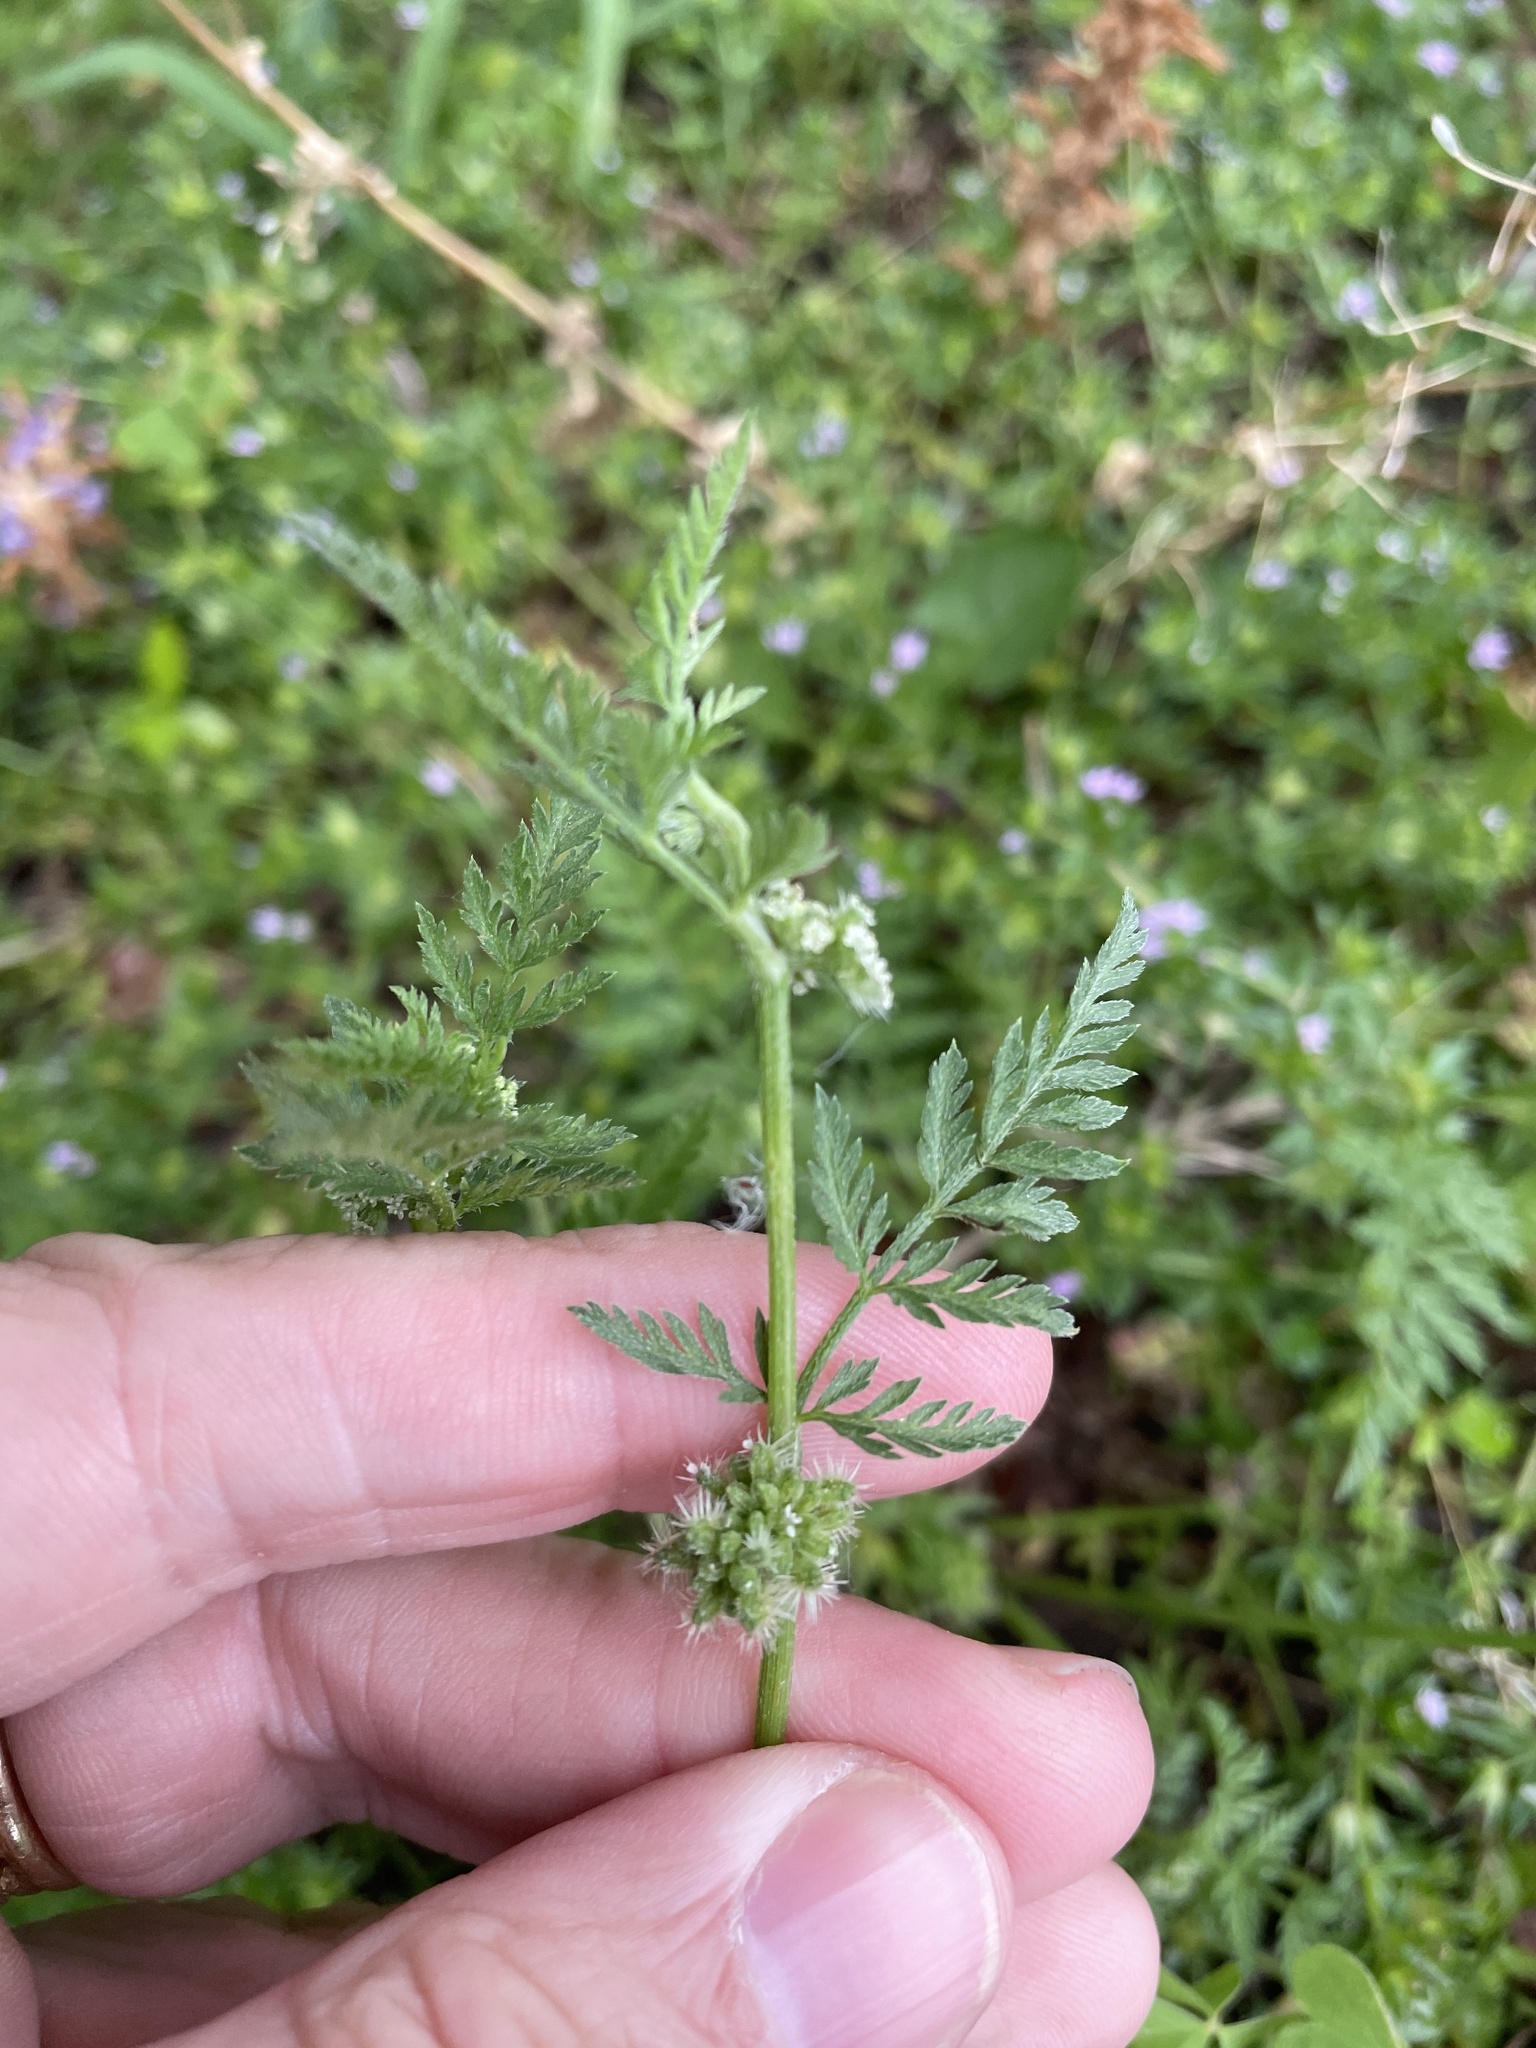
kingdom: Plantae
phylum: Tracheophyta
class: Magnoliopsida
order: Apiales
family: Apiaceae
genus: Torilis
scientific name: Torilis nodosa
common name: Knotted hedge-parsley
